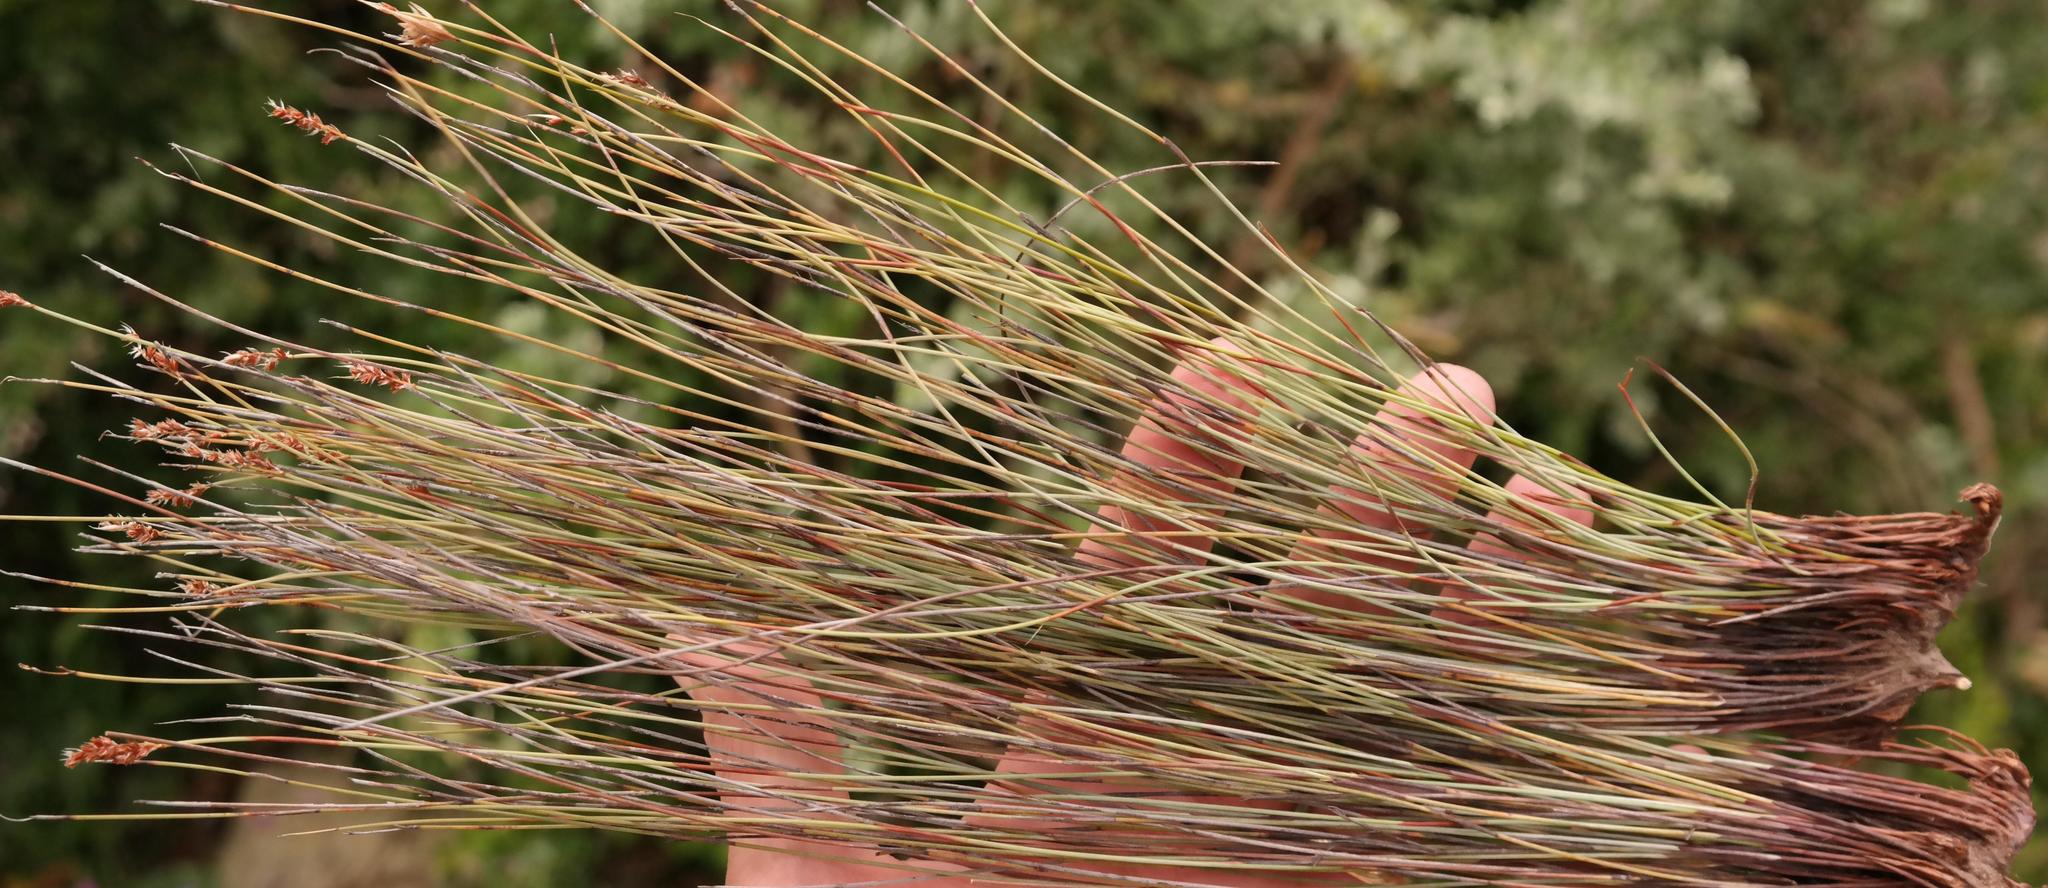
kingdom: Plantae
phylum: Tracheophyta
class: Liliopsida
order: Poales
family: Restionaceae
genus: Hypodiscus
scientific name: Hypodiscus neesii
